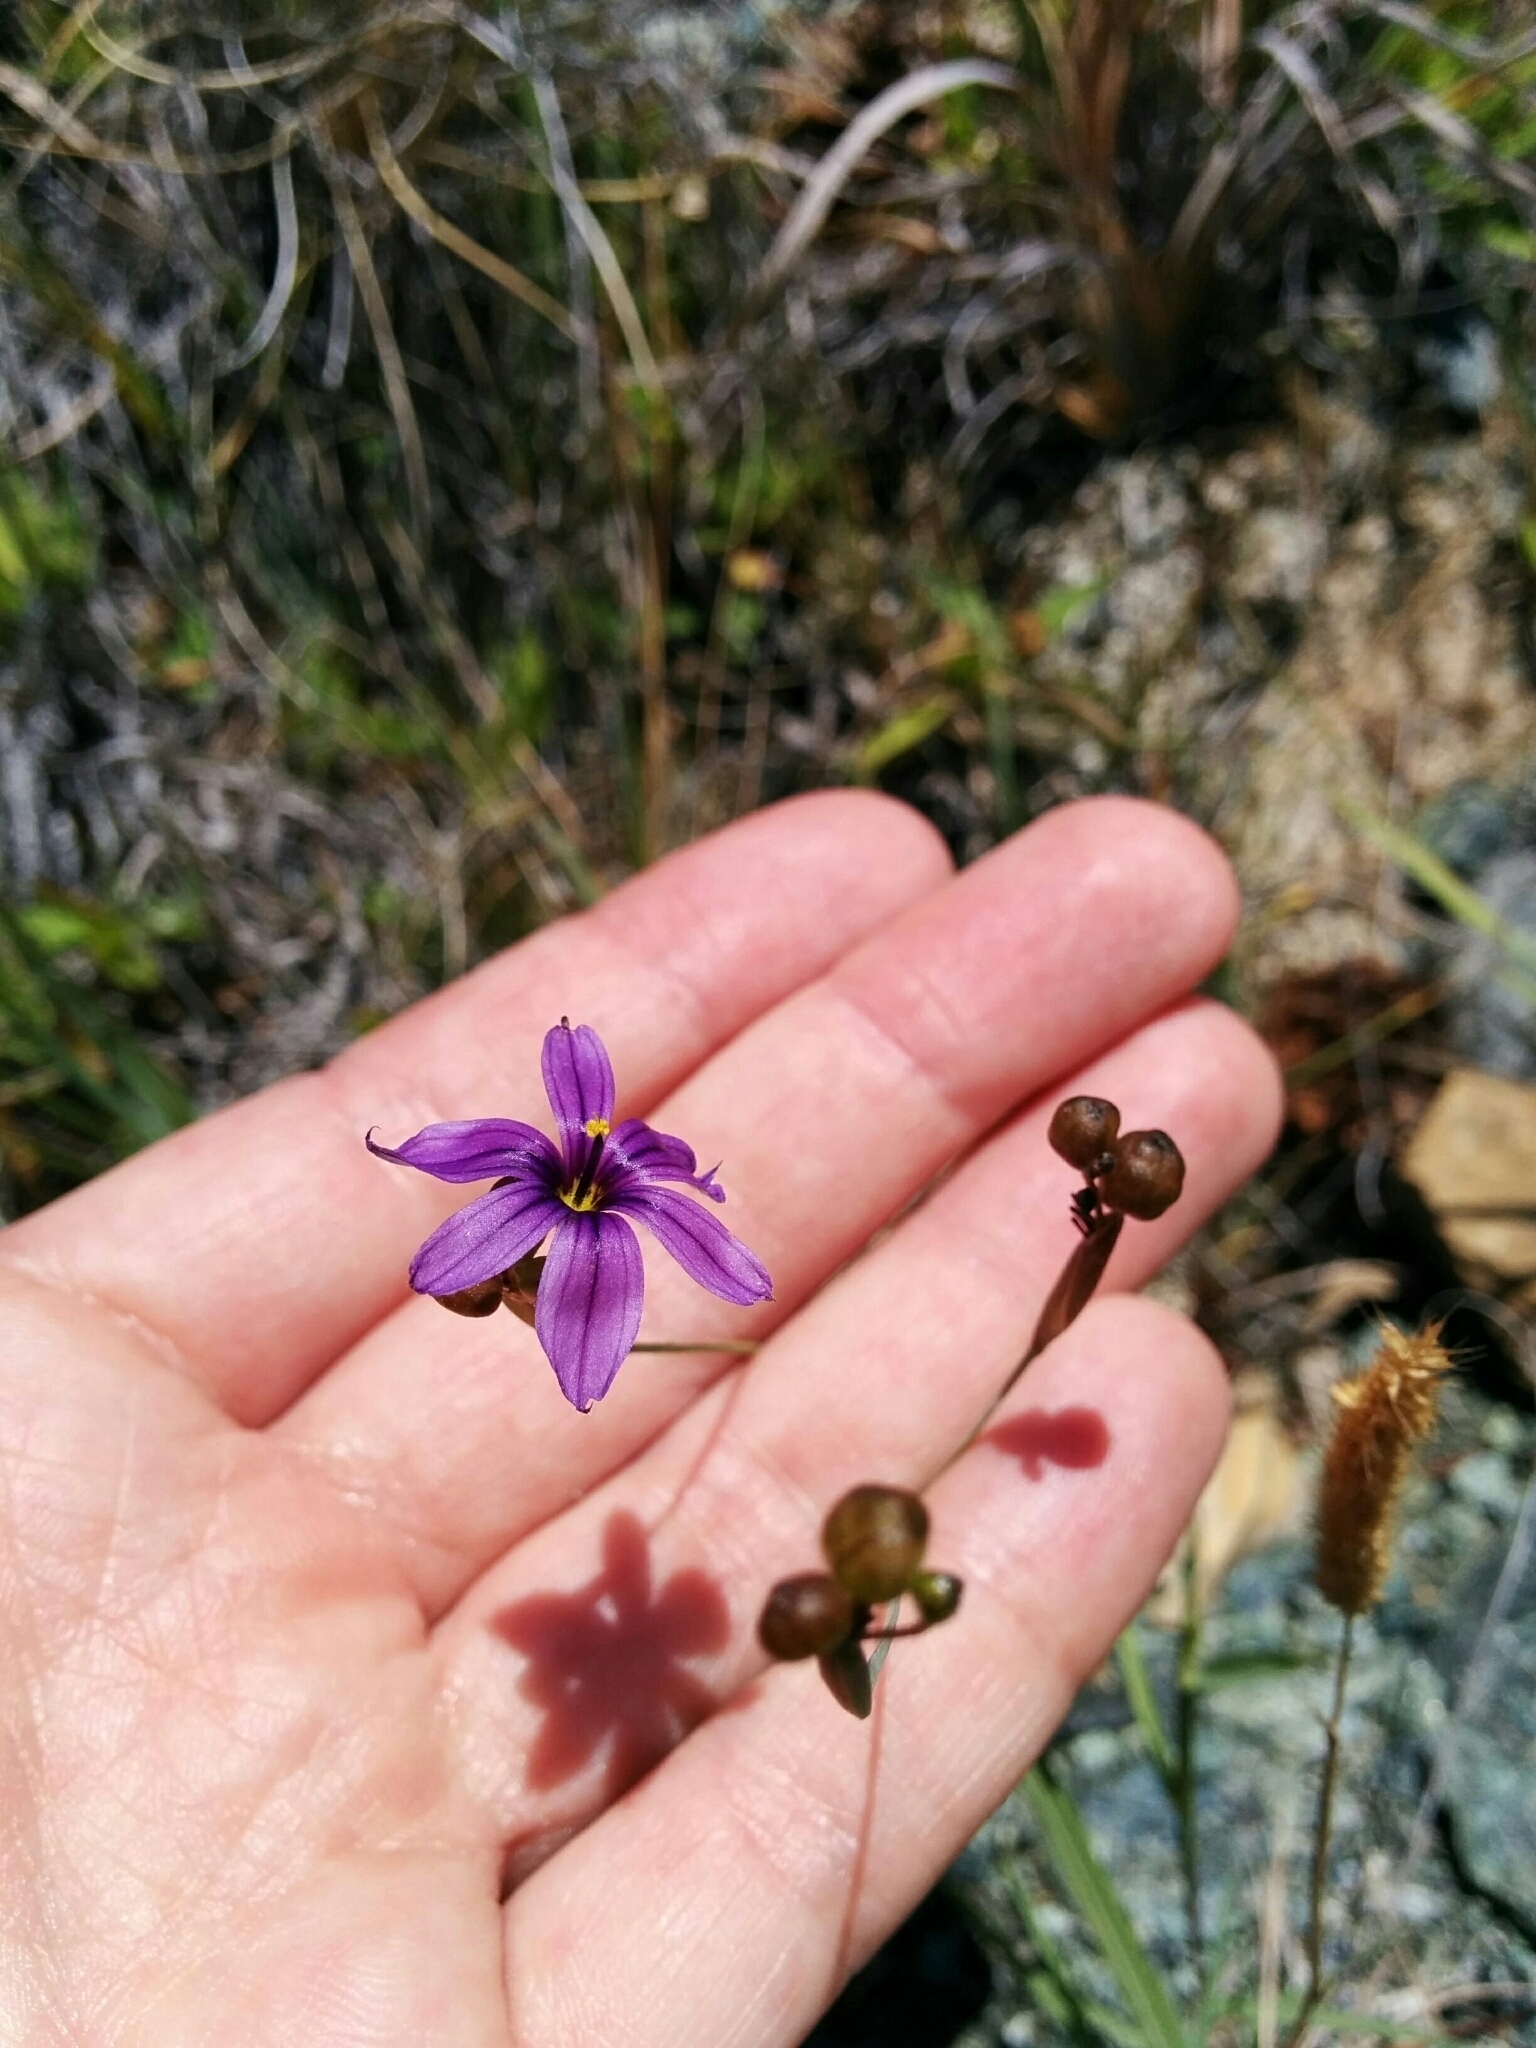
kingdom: Plantae
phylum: Tracheophyta
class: Liliopsida
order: Asparagales
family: Iridaceae
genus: Sisyrinchium
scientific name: Sisyrinchium bellum
